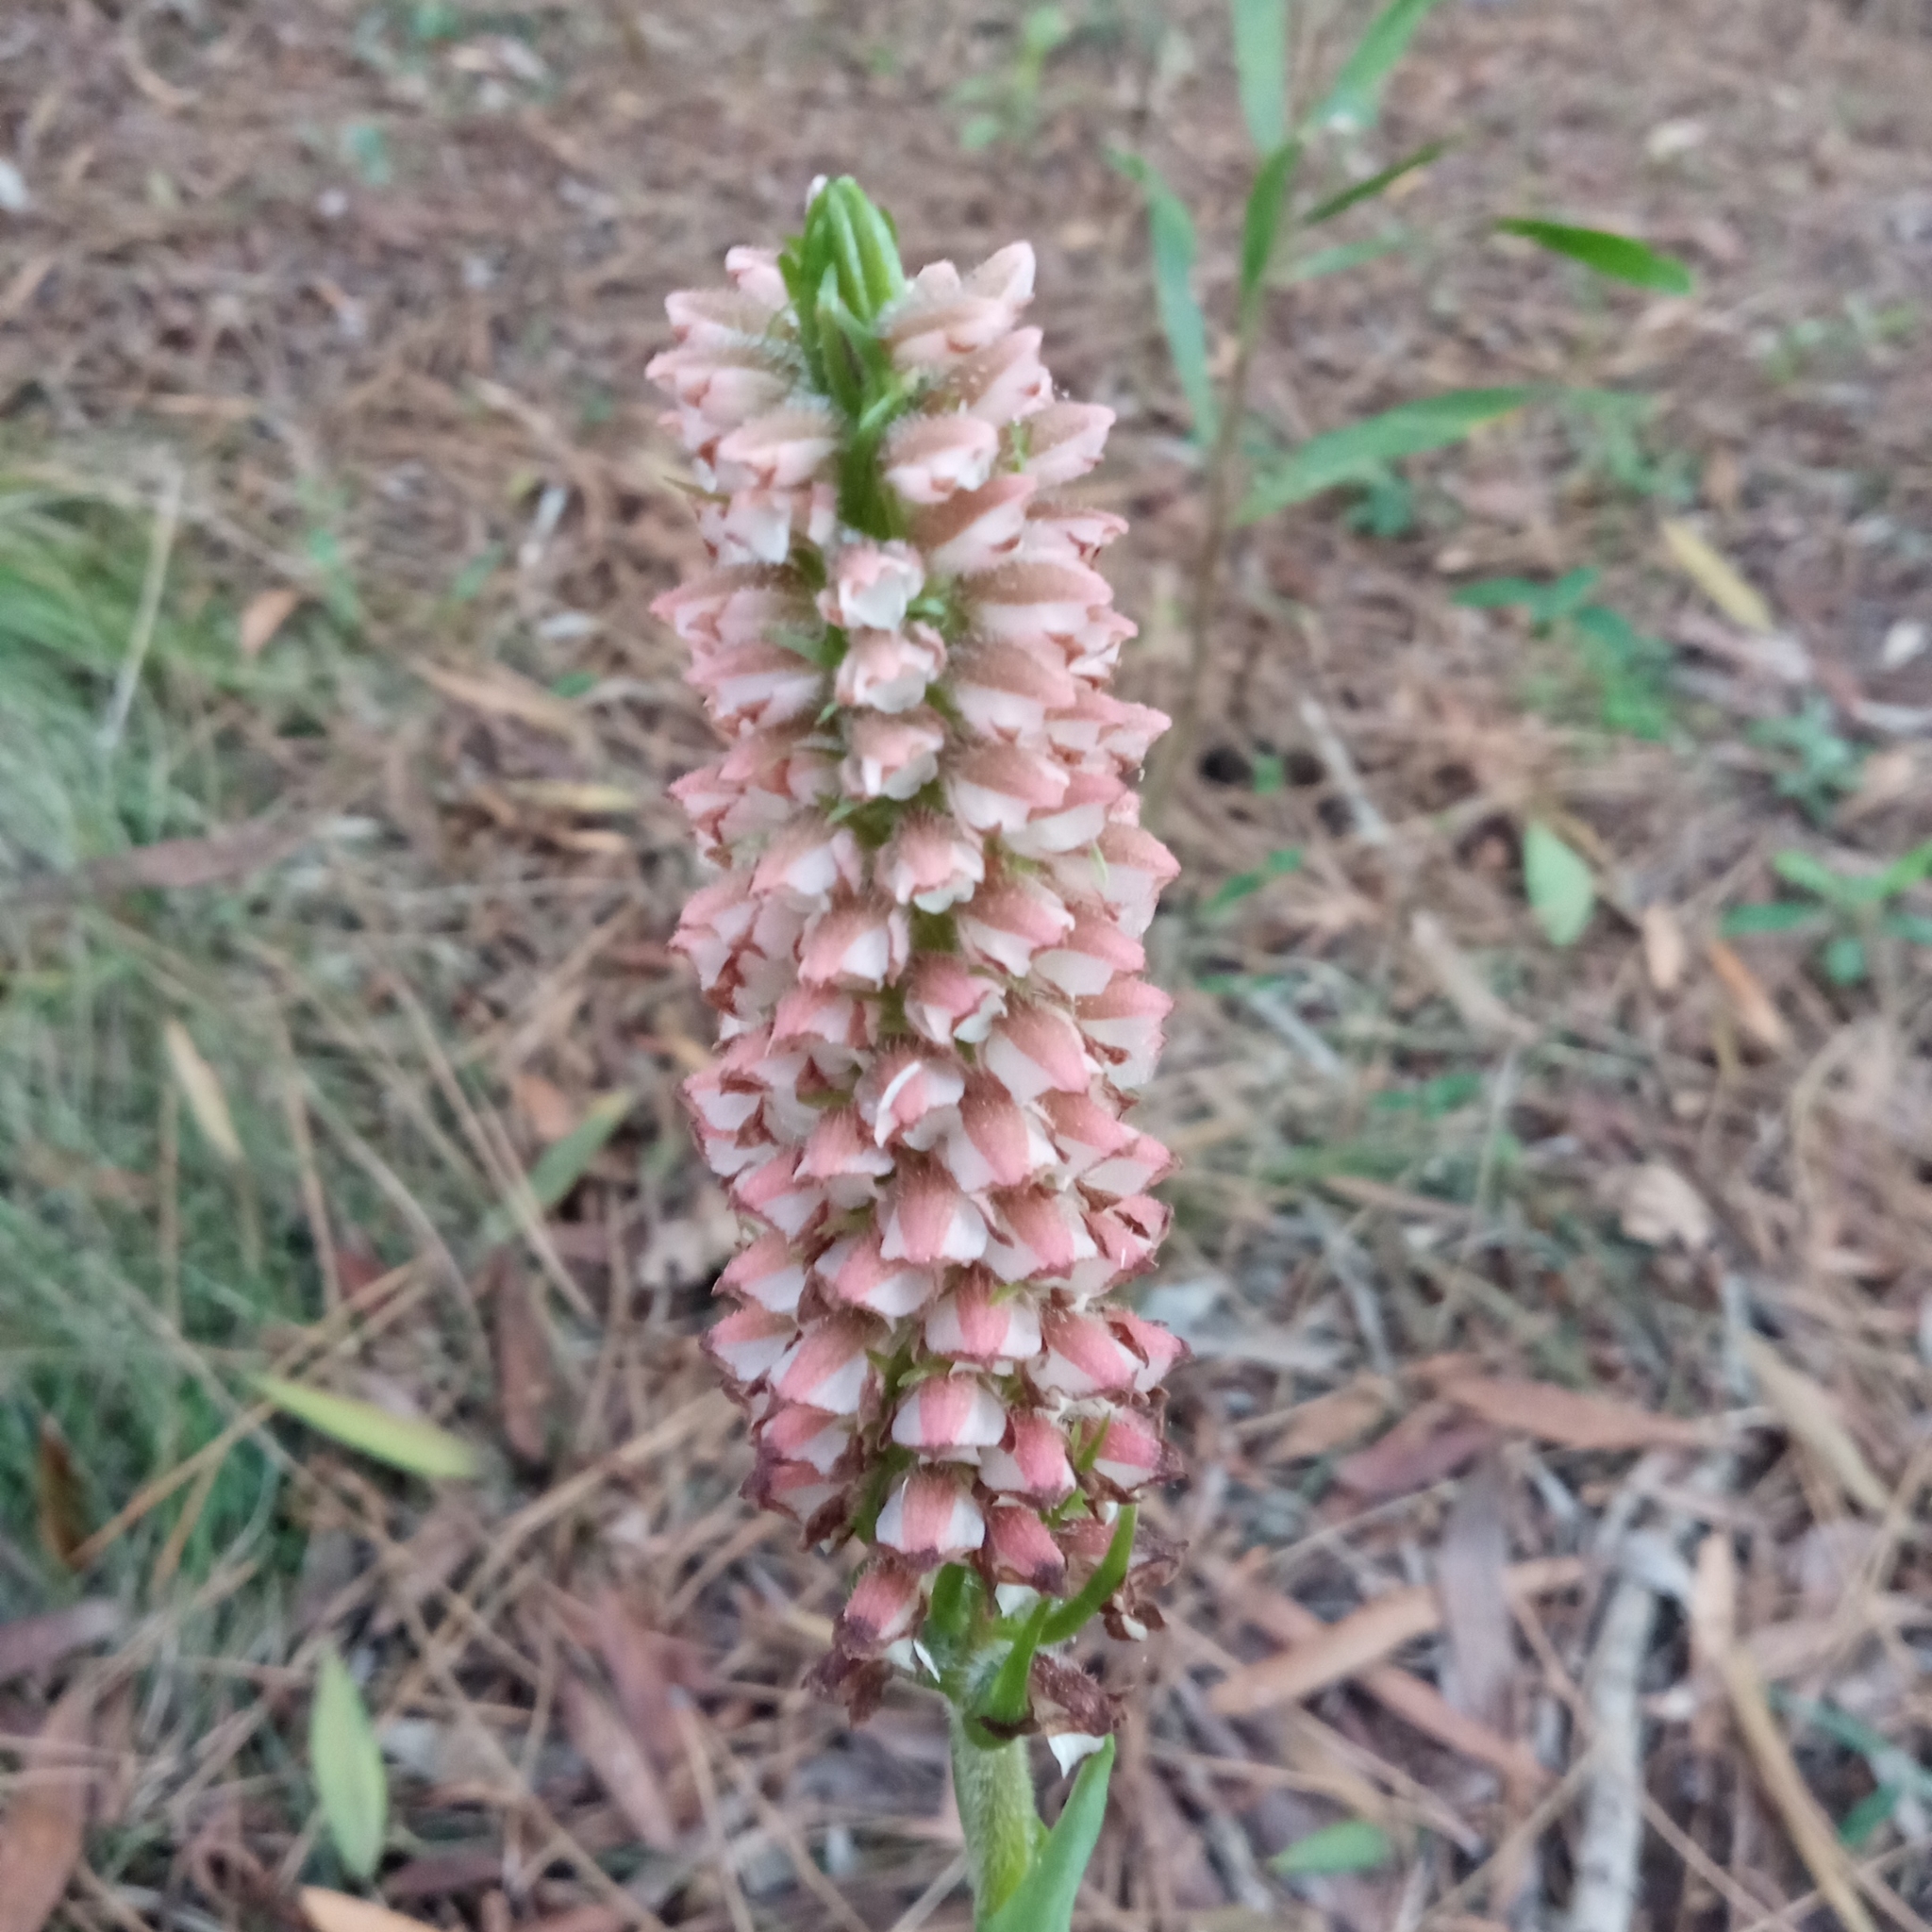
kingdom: Plantae
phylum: Tracheophyta
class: Liliopsida
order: Asparagales
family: Orchidaceae
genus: Skeptrostachys
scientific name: Skeptrostachys balanophorostachya
